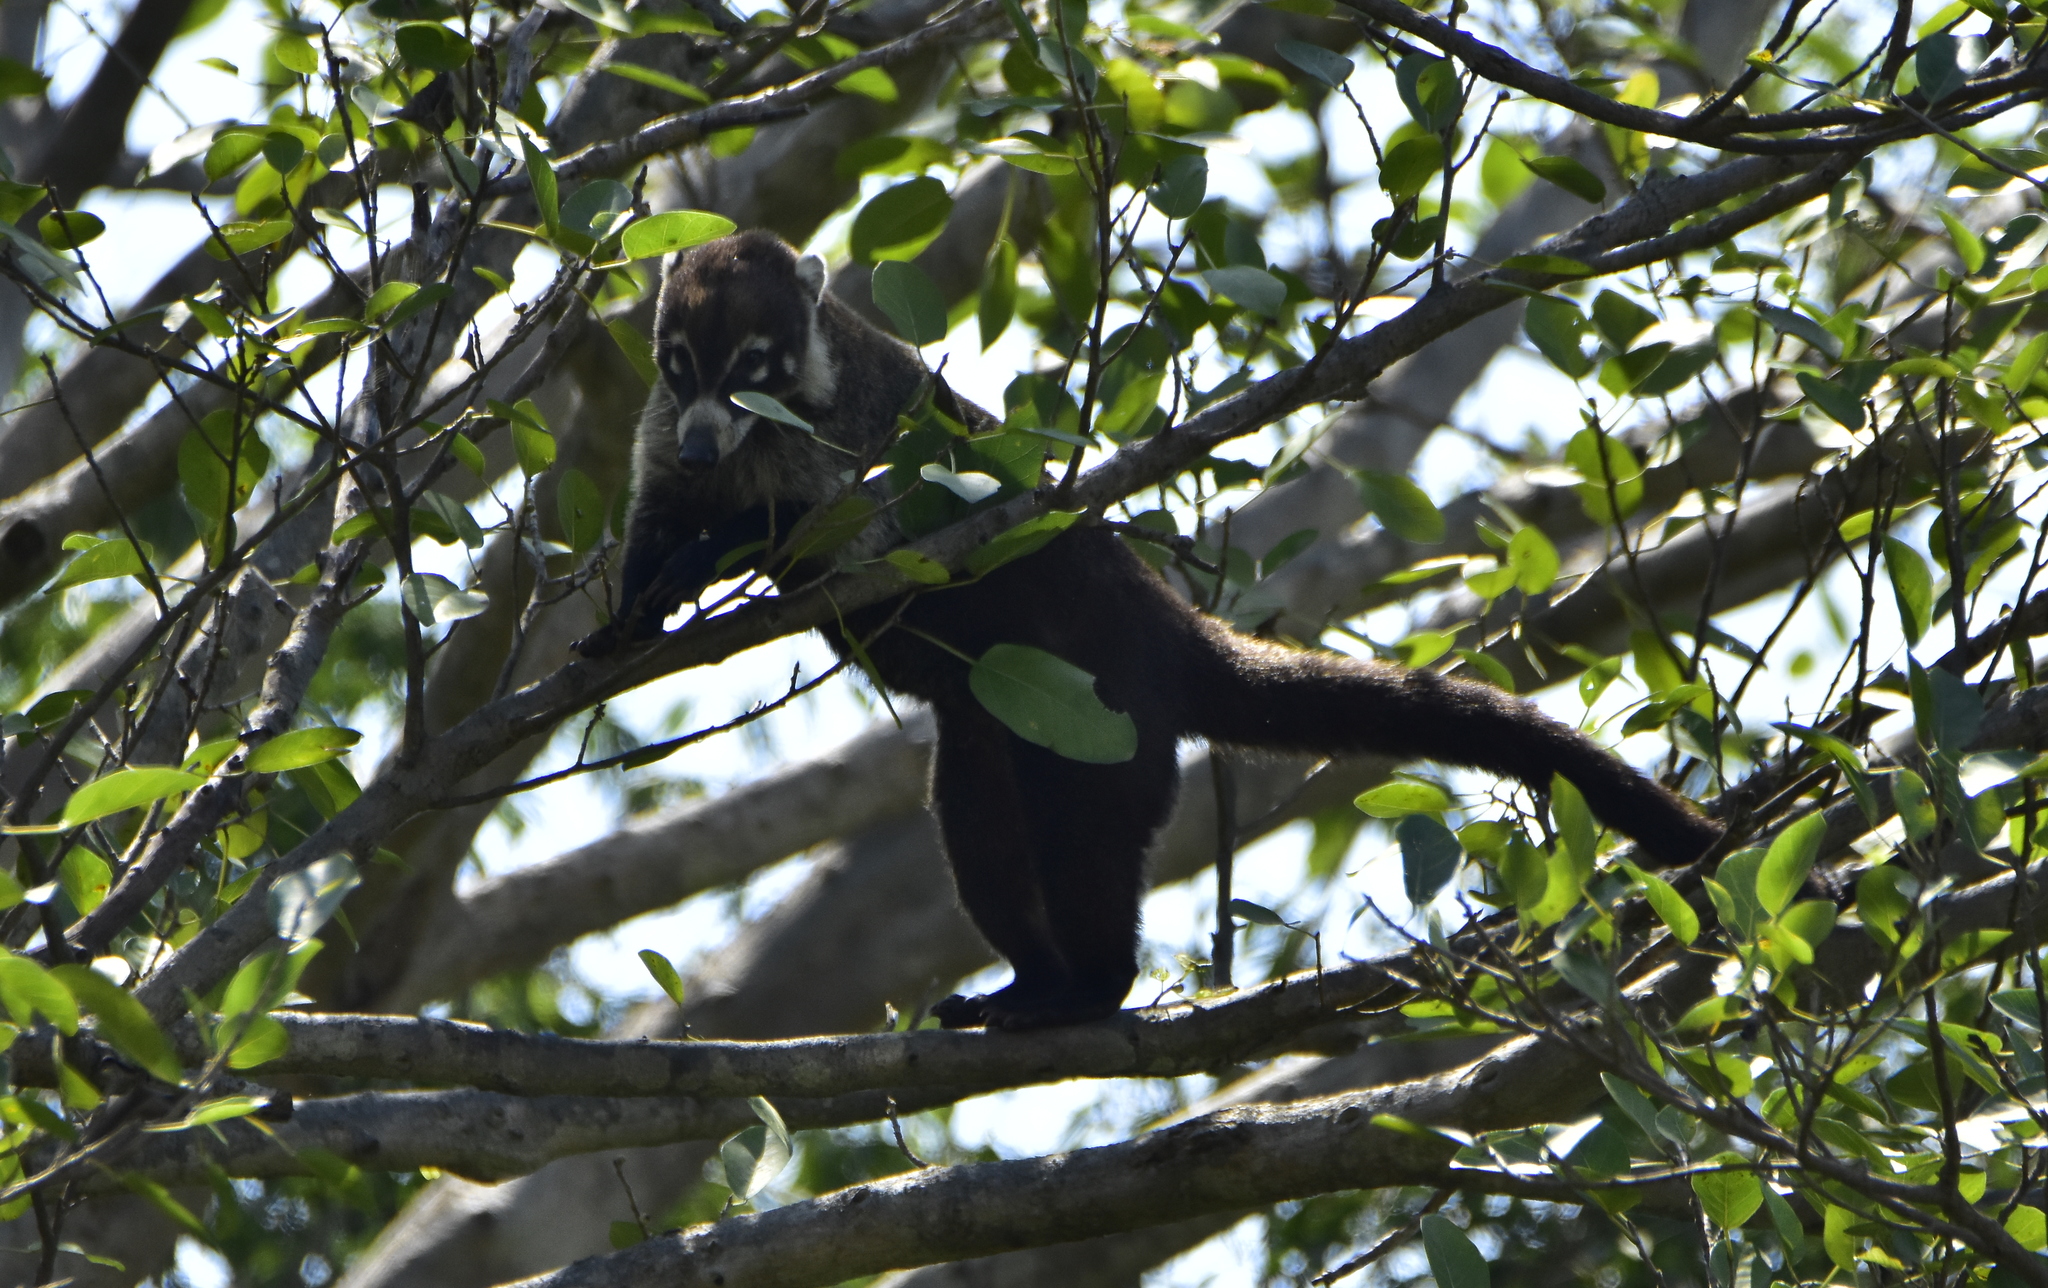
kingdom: Animalia
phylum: Chordata
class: Mammalia
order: Carnivora
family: Procyonidae
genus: Nasua
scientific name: Nasua narica
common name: White-nosed coati
